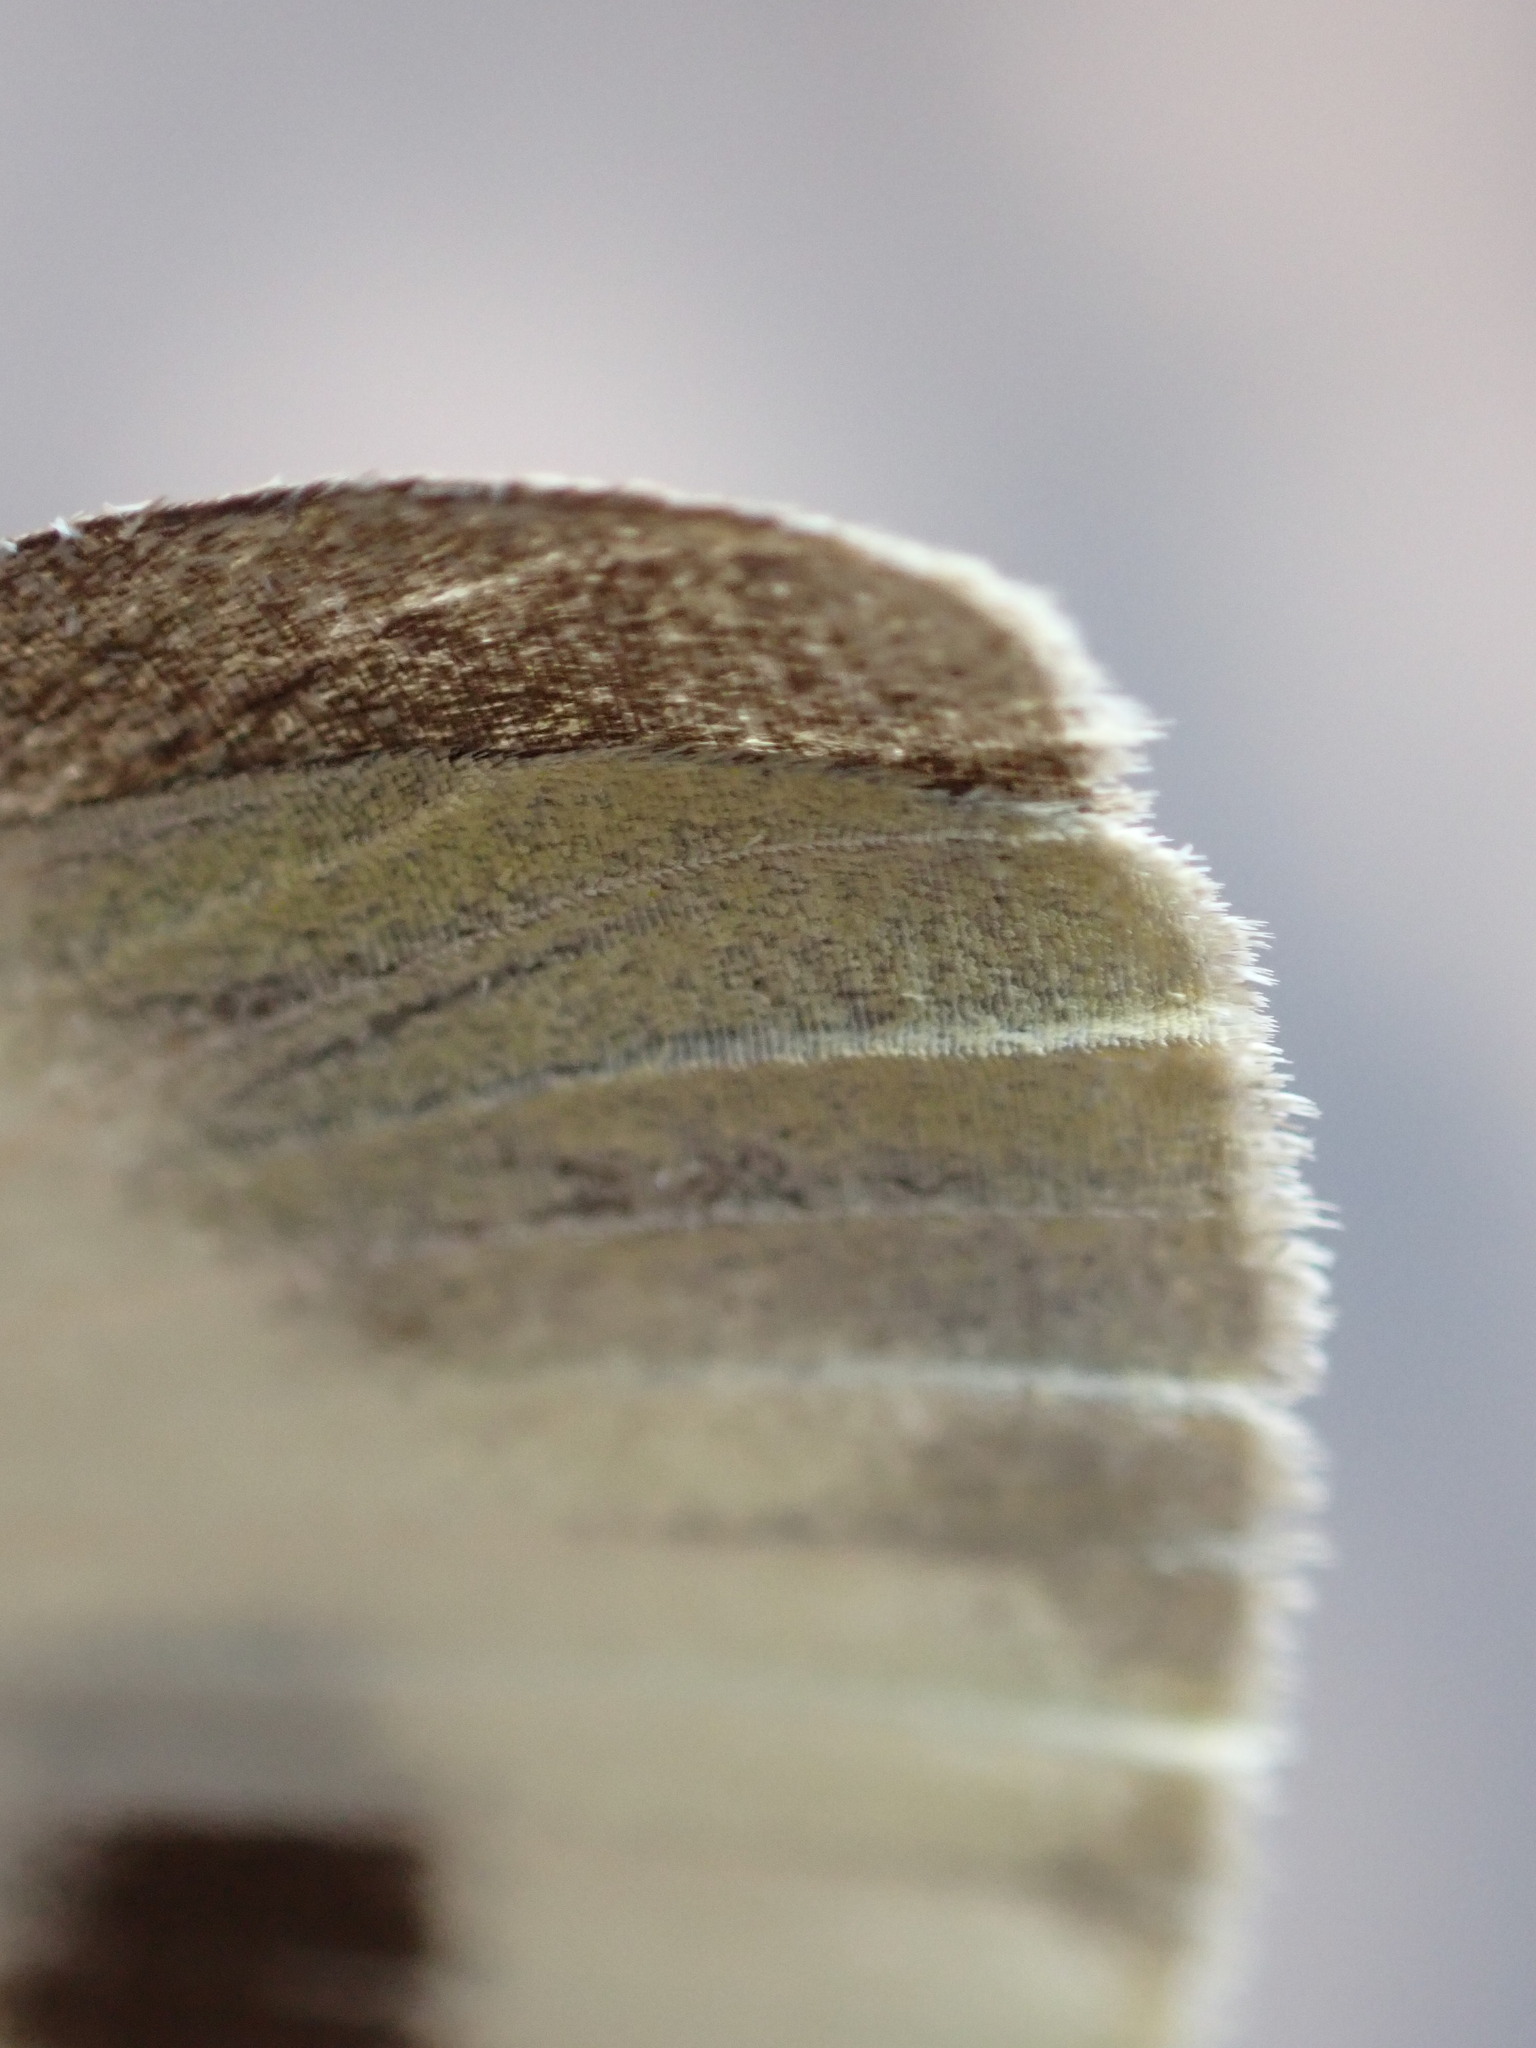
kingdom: Animalia
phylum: Arthropoda
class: Insecta
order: Lepidoptera
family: Pieridae
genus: Pieris
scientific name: Pieris mannii
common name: Southern small white
